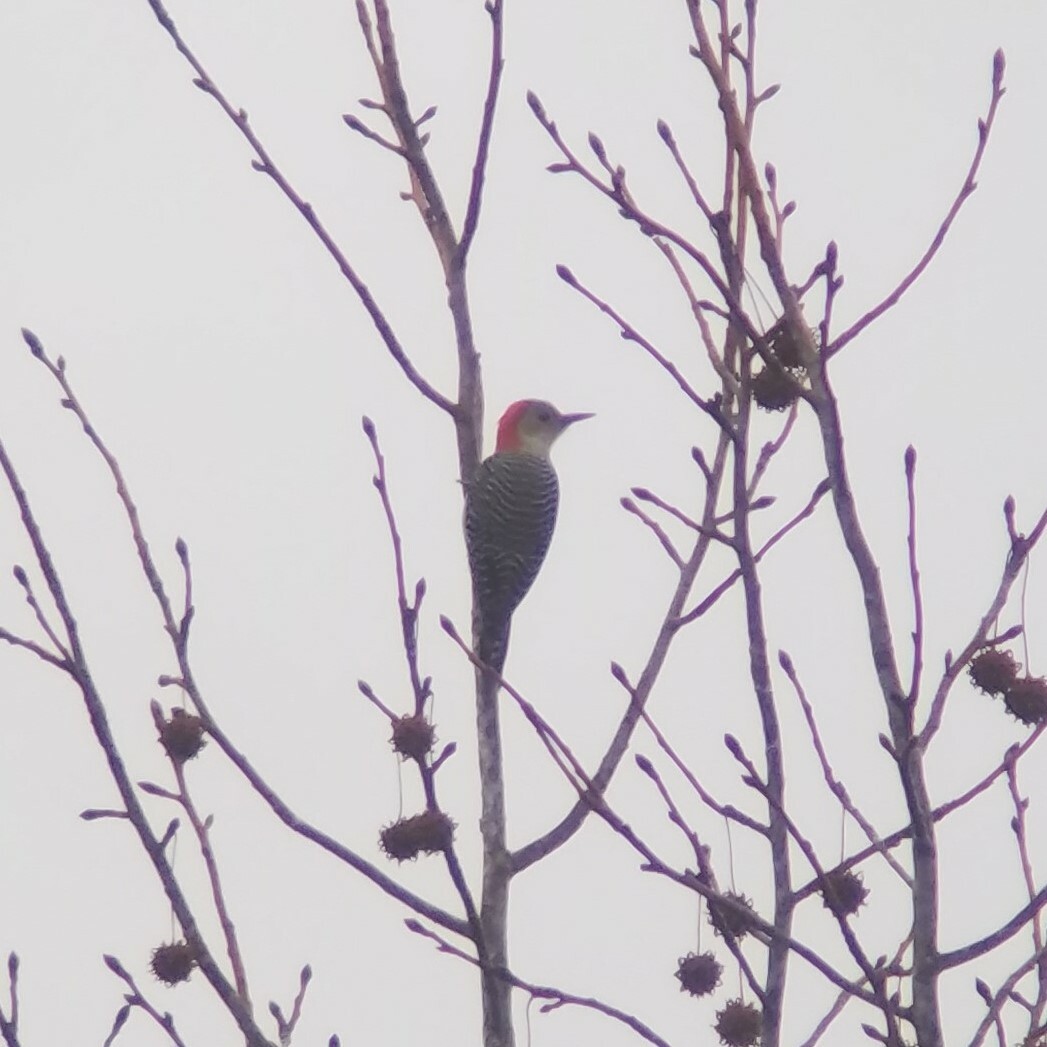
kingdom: Animalia
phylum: Chordata
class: Aves
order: Piciformes
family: Picidae
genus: Melanerpes
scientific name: Melanerpes carolinus
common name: Red-bellied woodpecker
